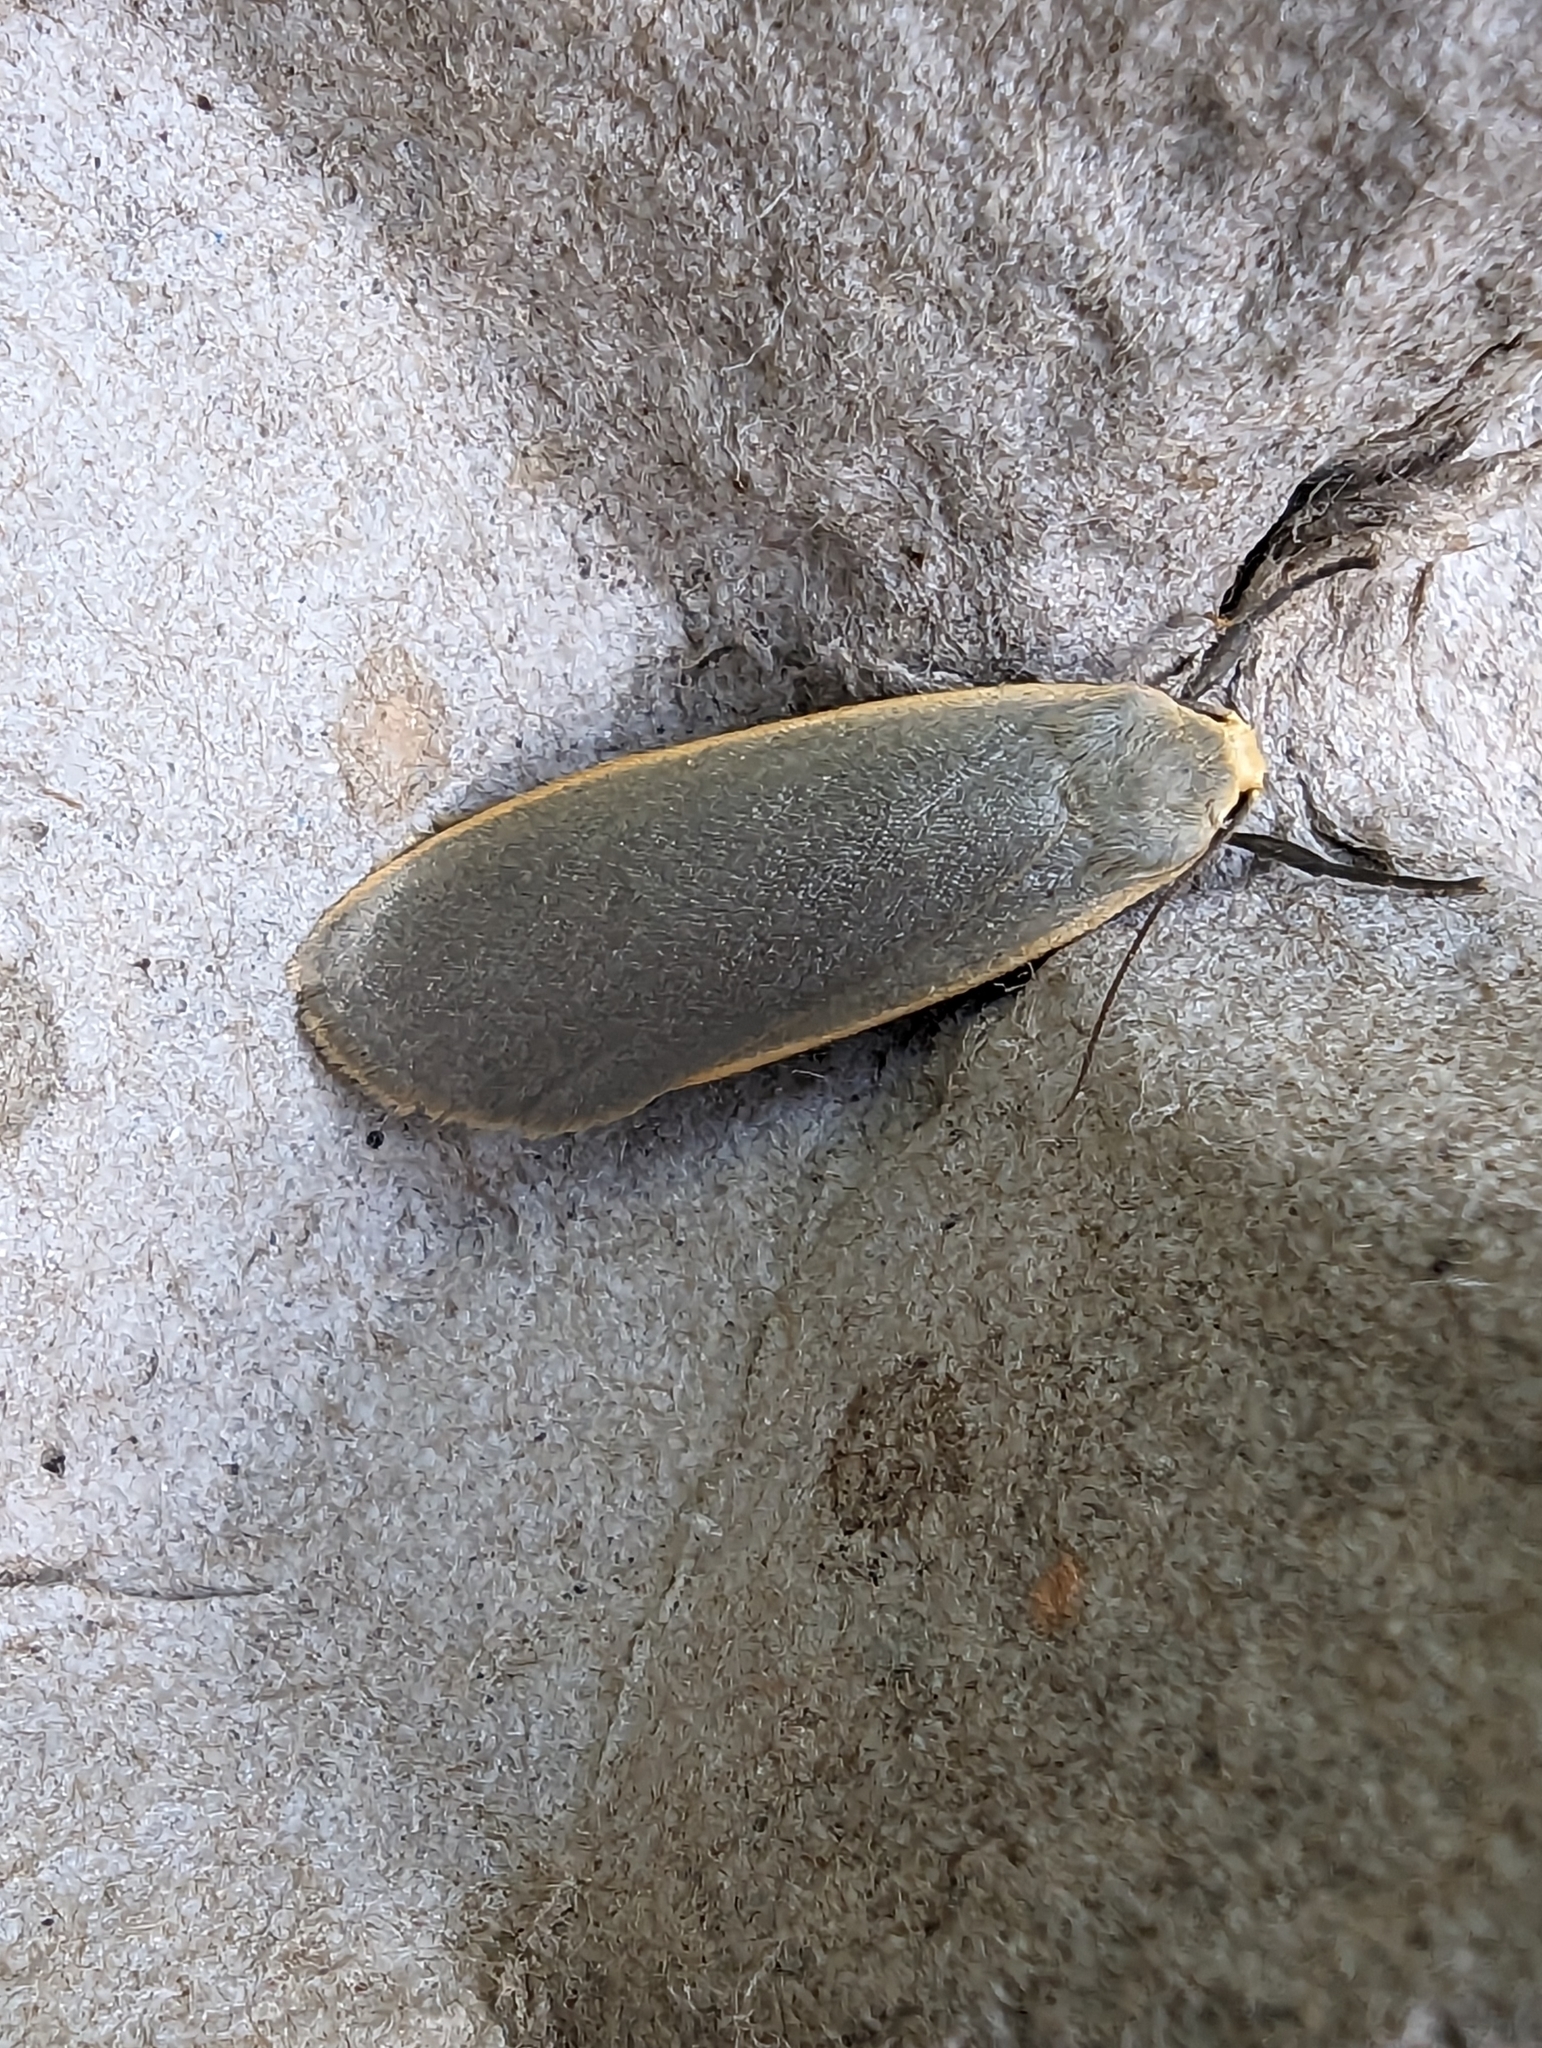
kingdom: Animalia
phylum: Arthropoda
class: Insecta
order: Lepidoptera
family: Erebidae
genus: Collita
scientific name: Collita griseola
